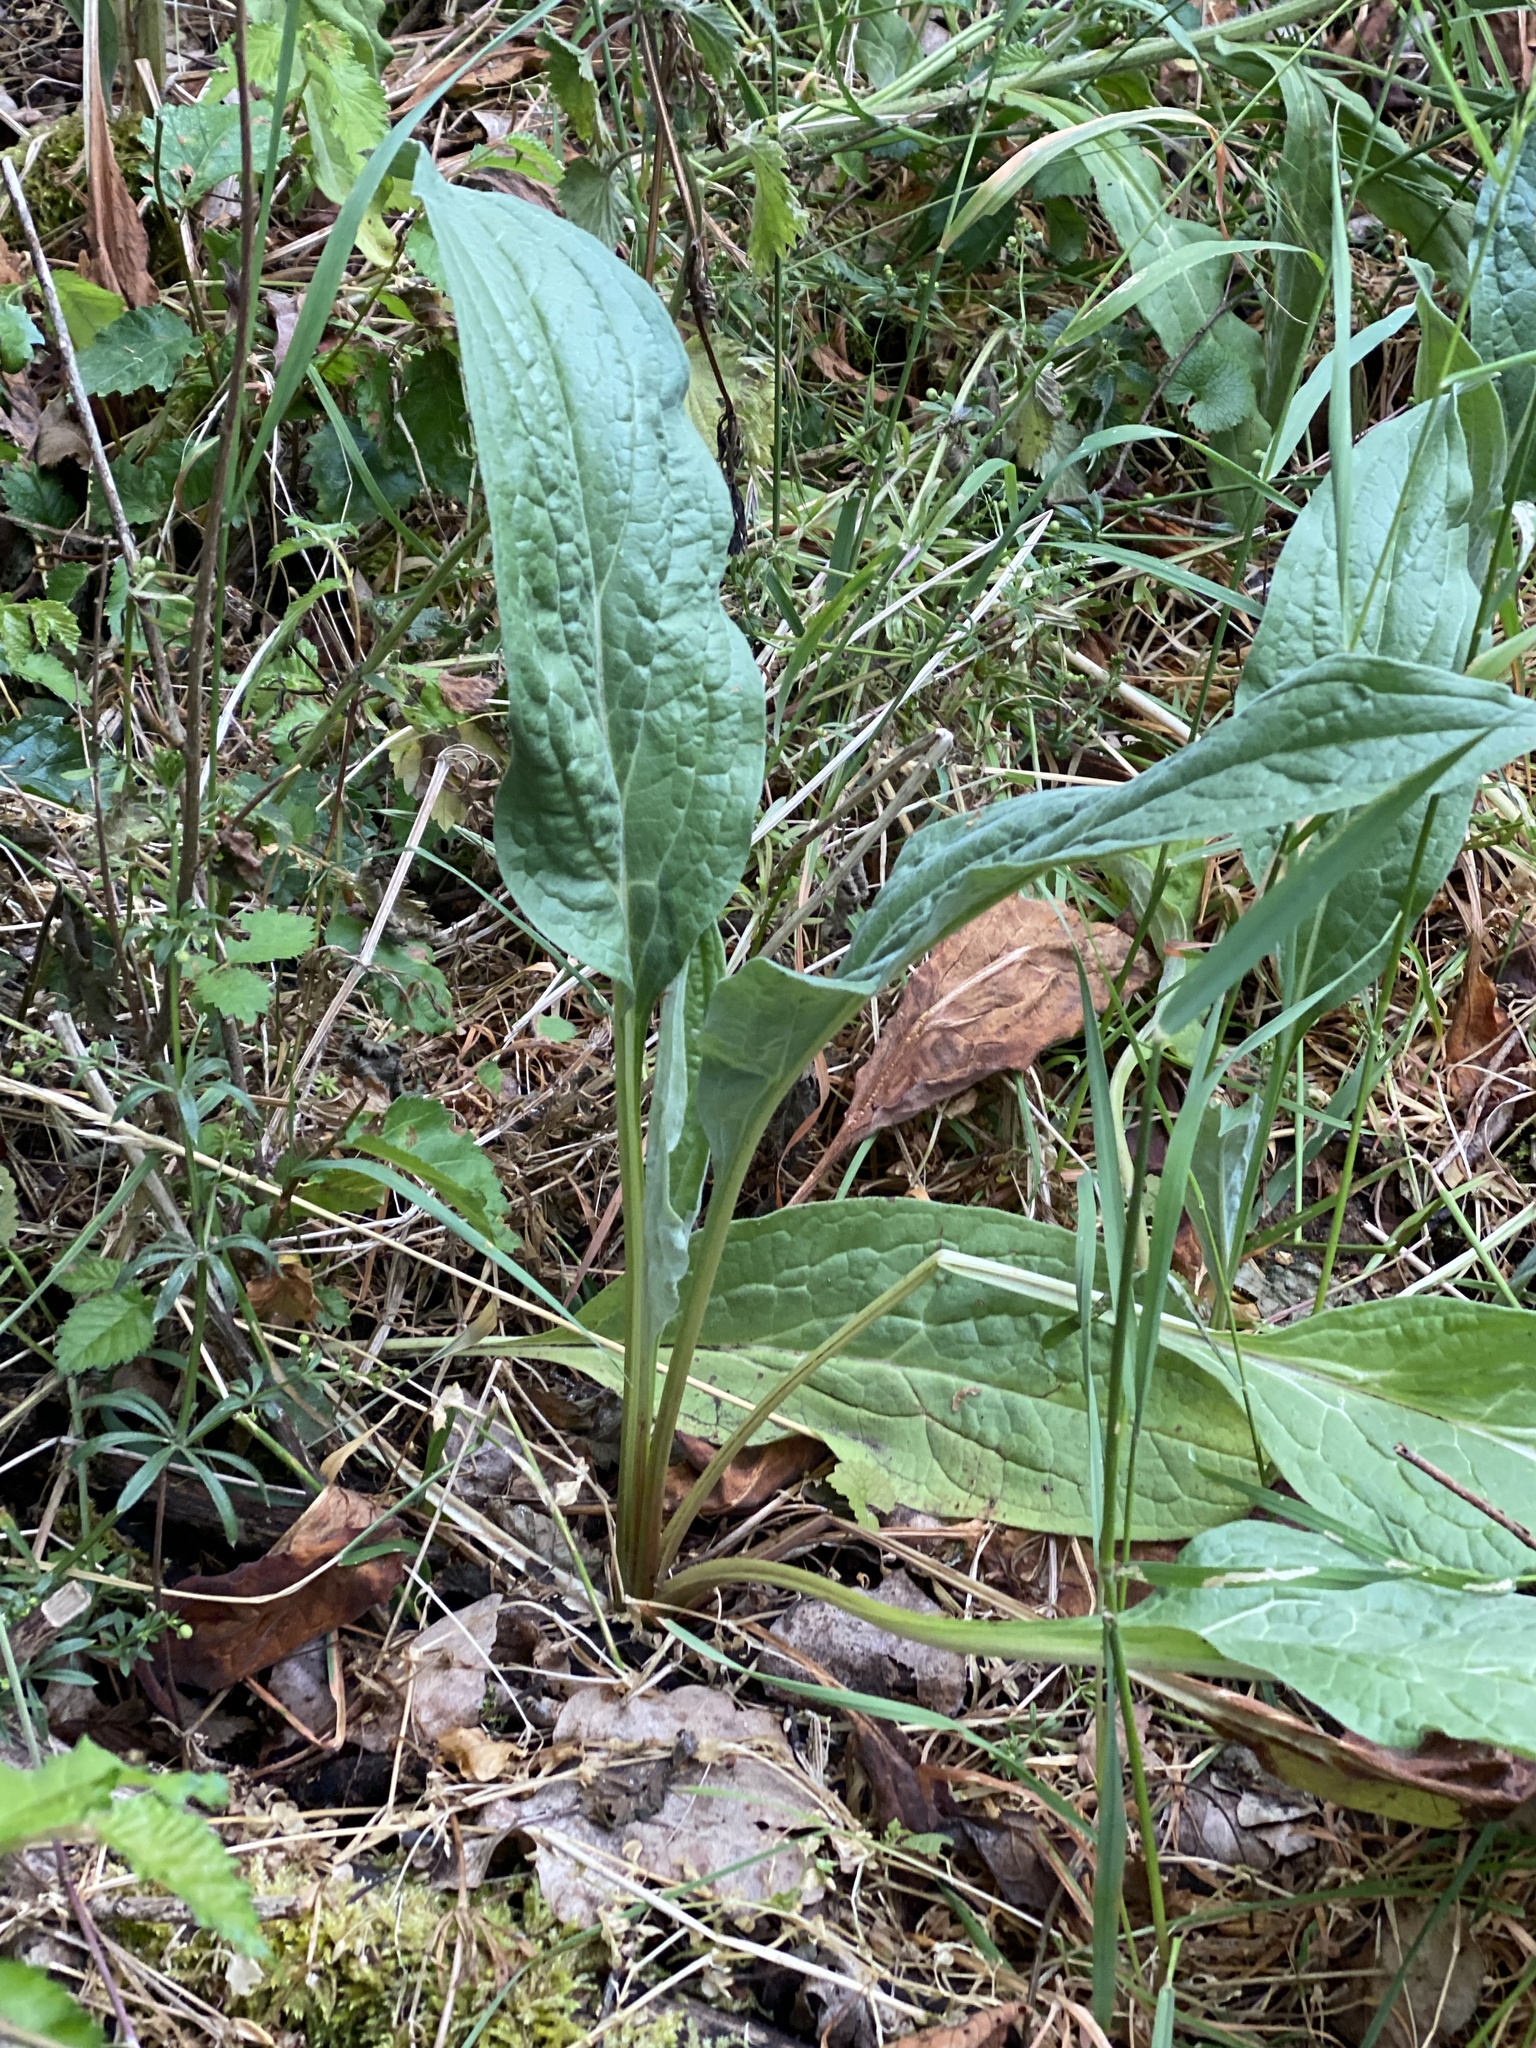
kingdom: Plantae
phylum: Tracheophyta
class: Magnoliopsida
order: Boraginales
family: Boraginaceae
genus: Cynoglossum
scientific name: Cynoglossum officinale
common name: Hound's-tongue
